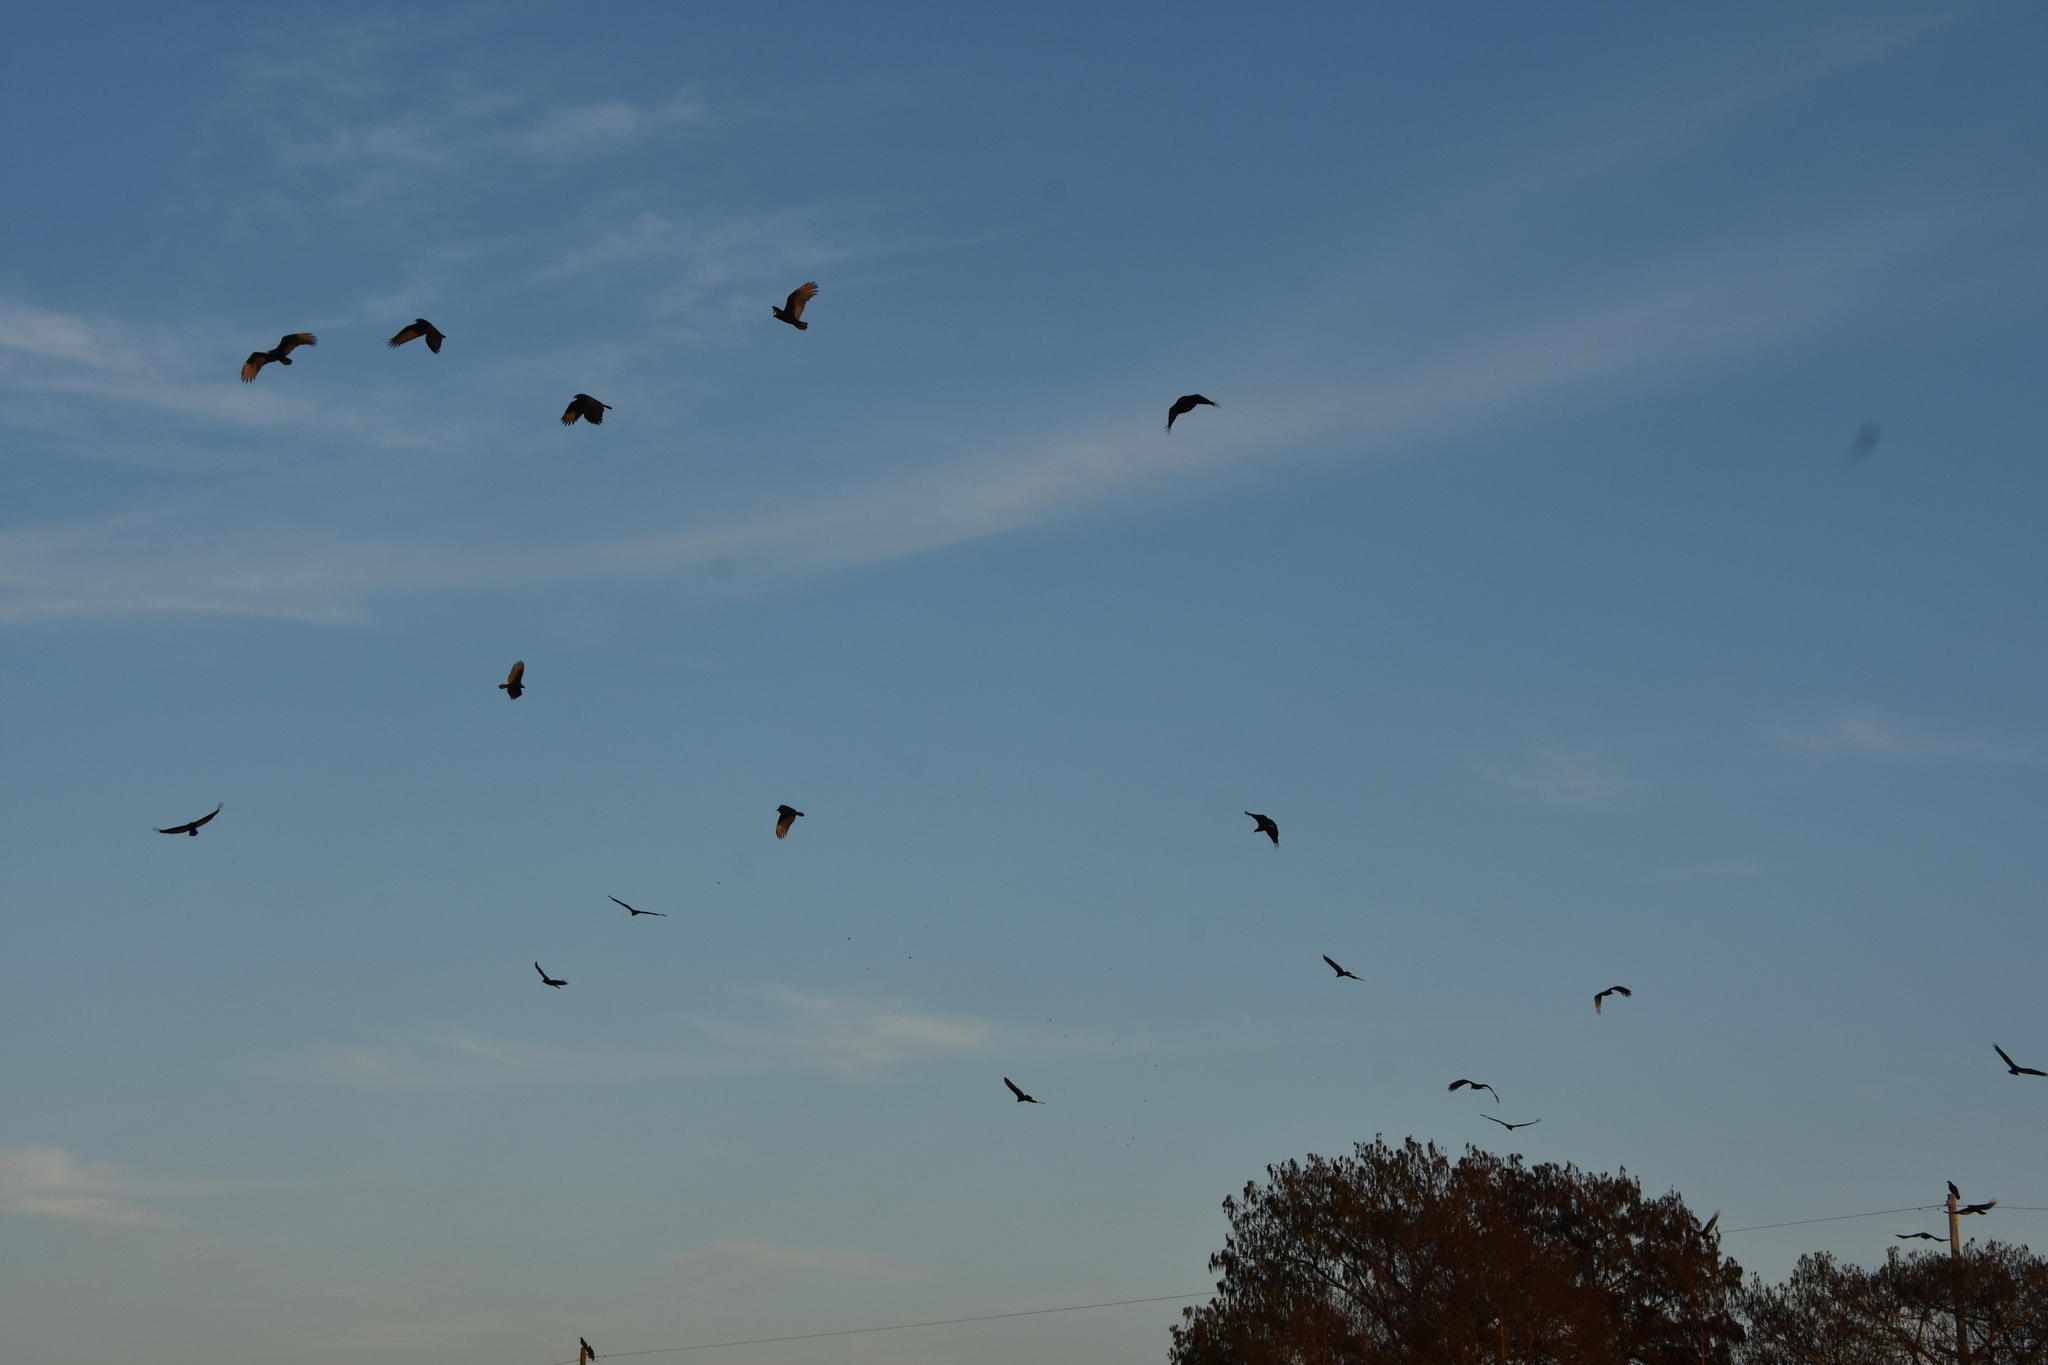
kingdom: Animalia
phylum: Chordata
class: Aves
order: Accipitriformes
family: Cathartidae
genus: Cathartes
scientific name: Cathartes aura
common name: Turkey vulture
